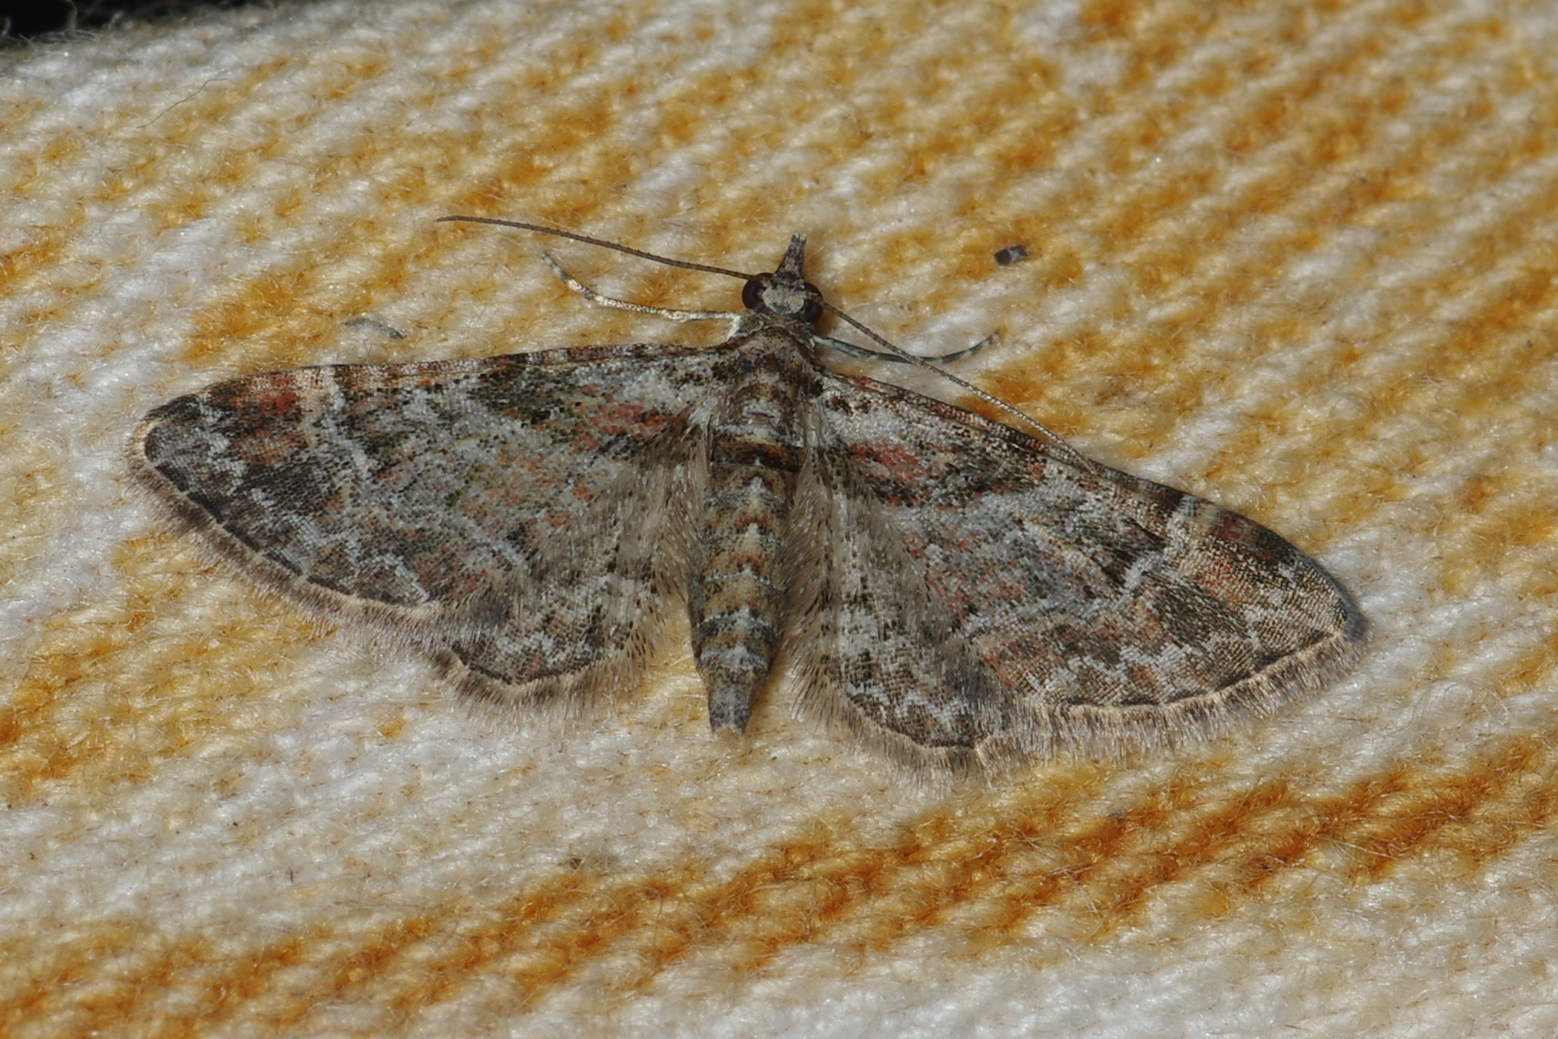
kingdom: Animalia
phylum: Arthropoda
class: Insecta
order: Lepidoptera
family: Geometridae
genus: Gymnoscelis
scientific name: Gymnoscelis rufifasciata
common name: Double-striped pug
